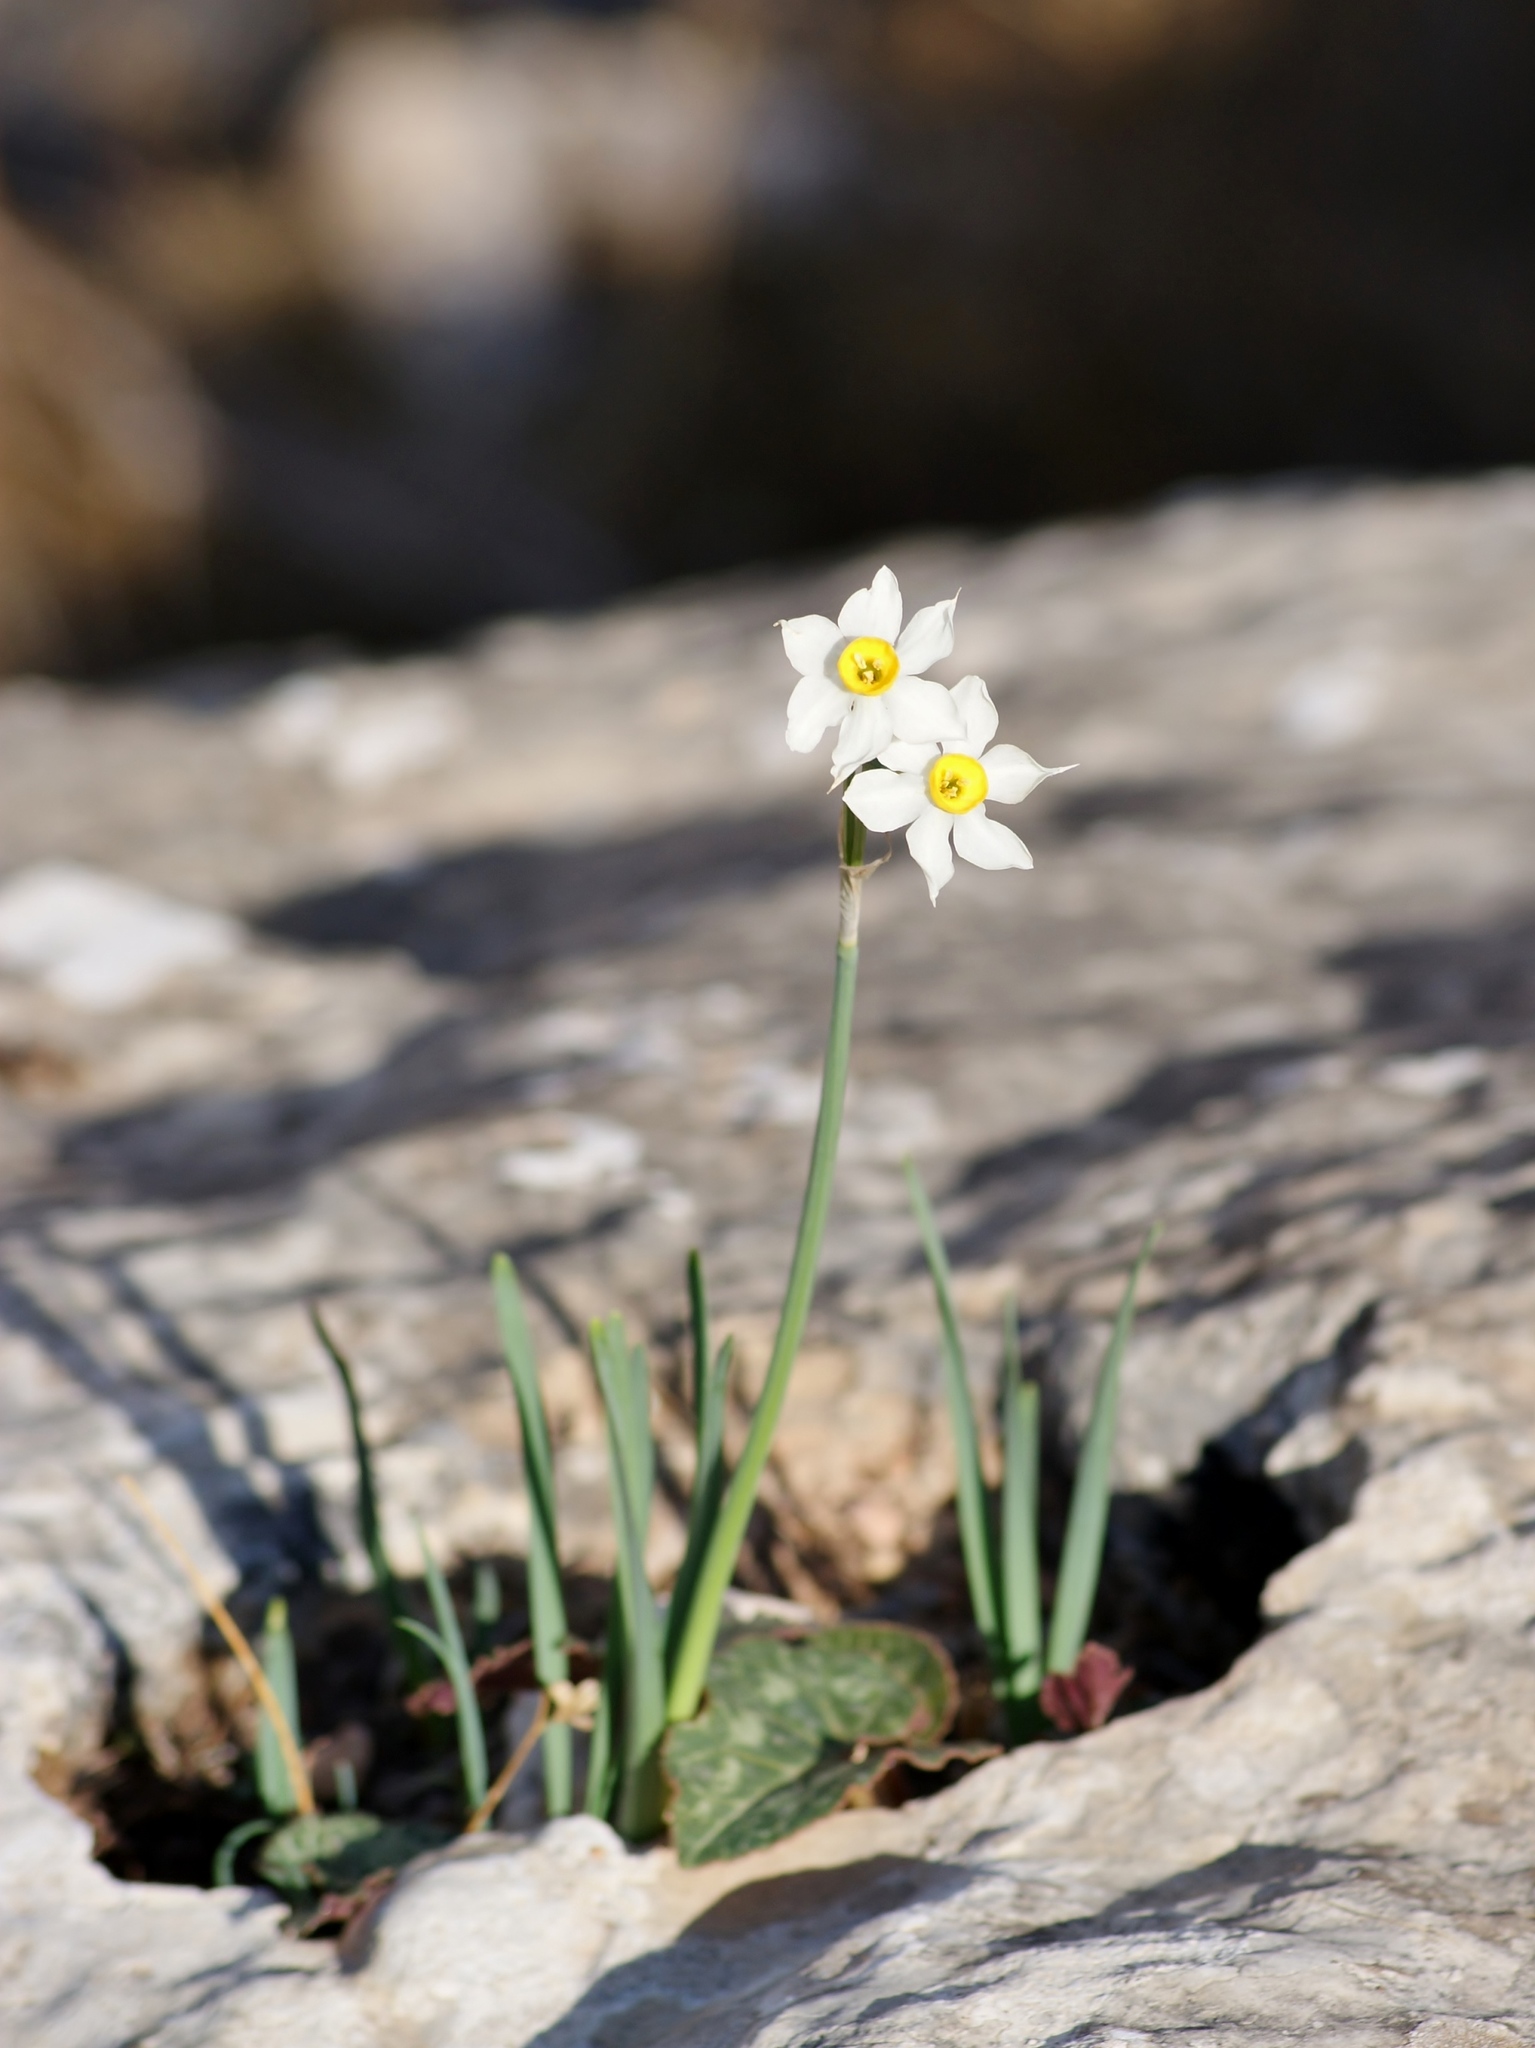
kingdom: Plantae
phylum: Tracheophyta
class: Liliopsida
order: Asparagales
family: Amaryllidaceae
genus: Narcissus
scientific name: Narcissus tazetta
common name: Bunch-flowered daffodil
